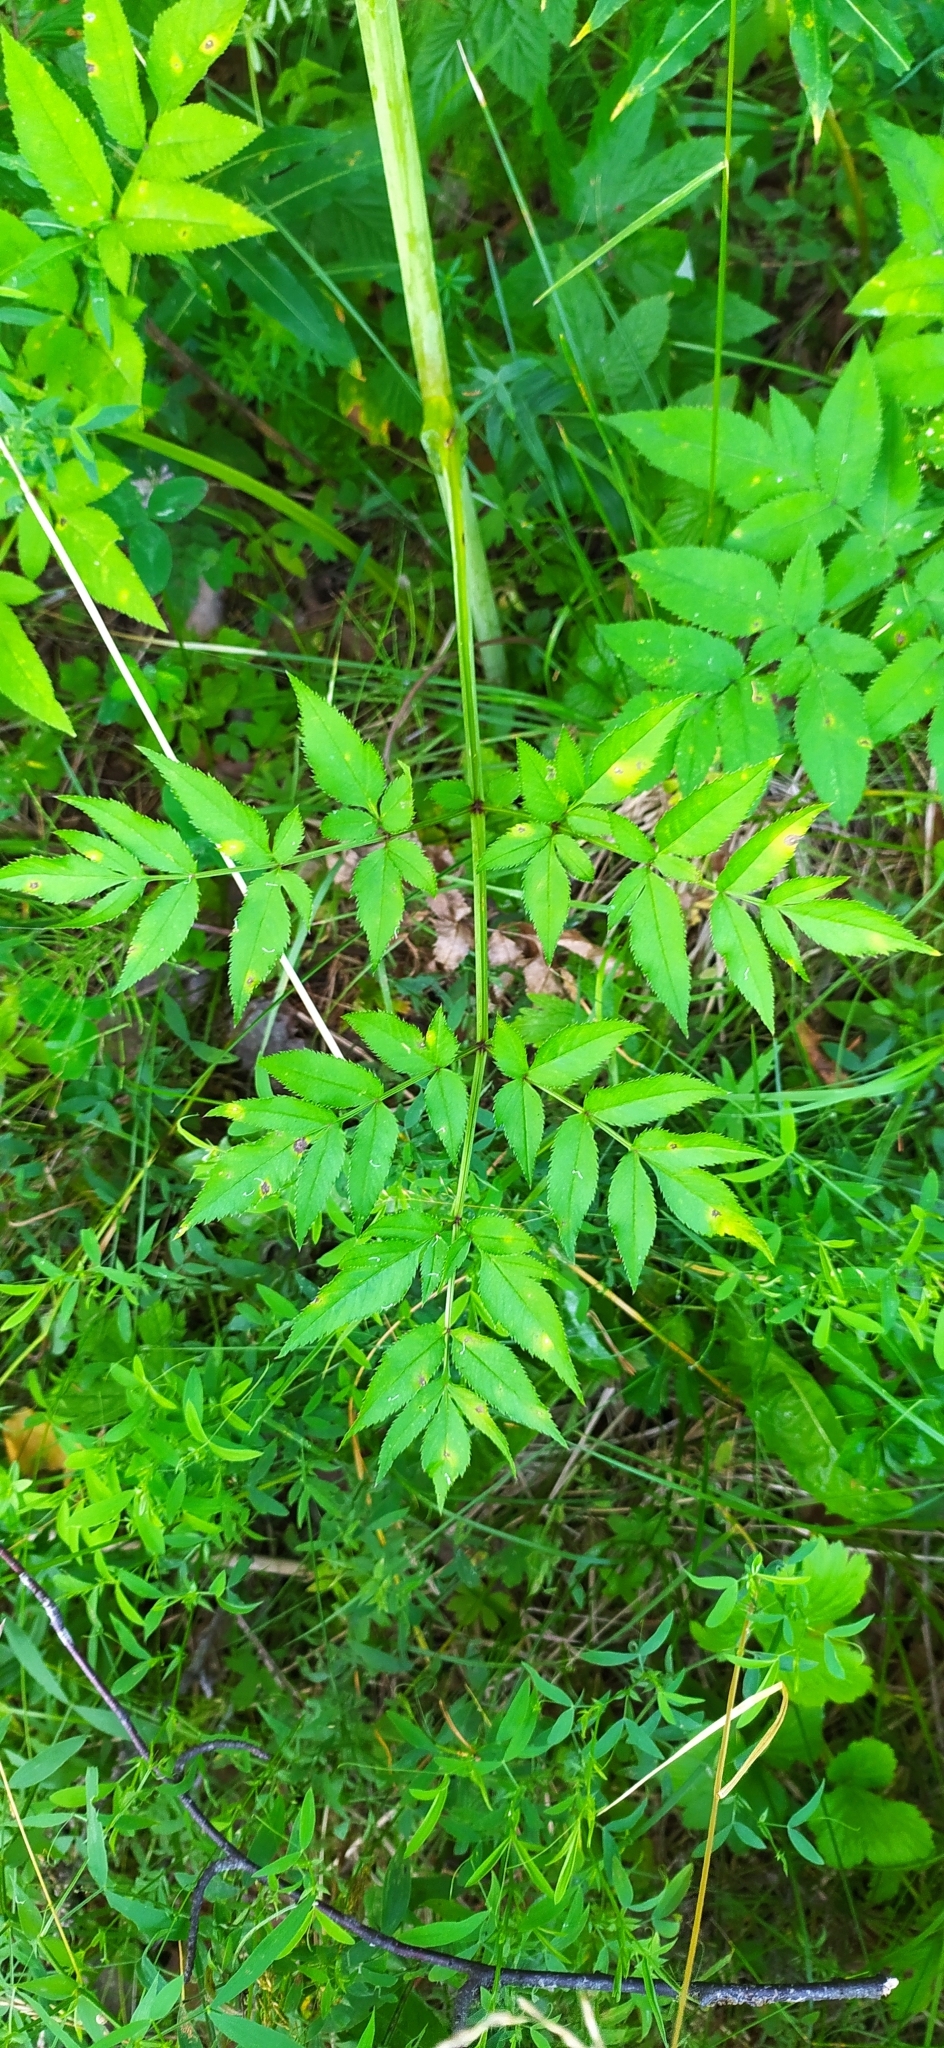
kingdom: Plantae
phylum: Tracheophyta
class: Magnoliopsida
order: Apiales
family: Apiaceae
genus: Angelica
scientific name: Angelica sylvestris
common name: Wild angelica
